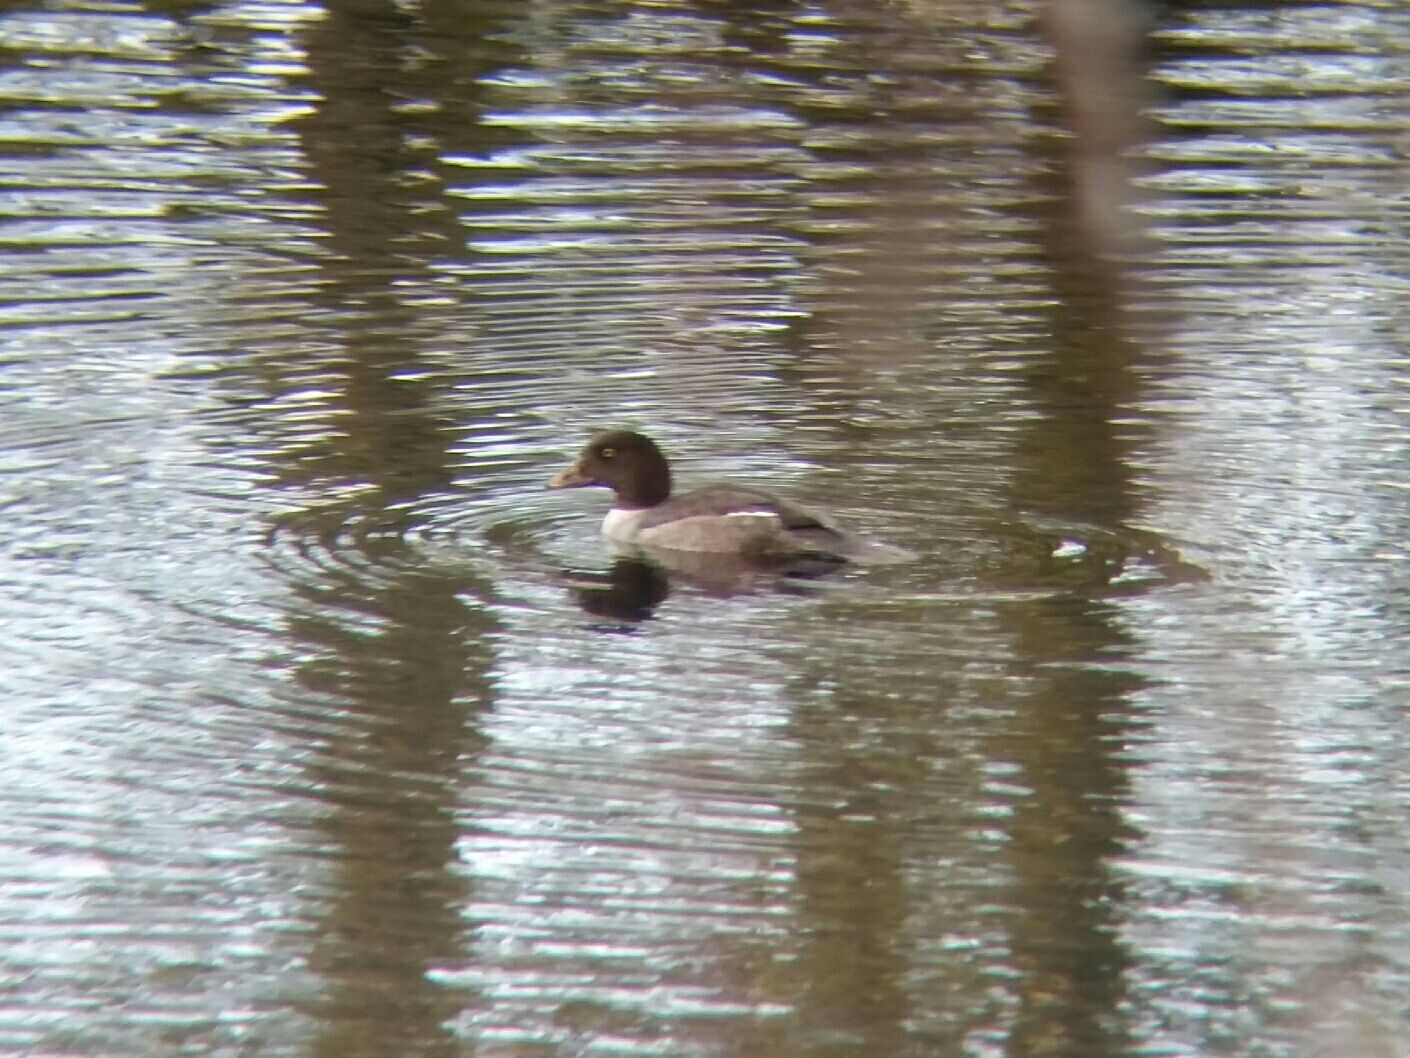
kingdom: Animalia
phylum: Chordata
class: Aves
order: Anseriformes
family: Anatidae
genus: Bucephala
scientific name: Bucephala clangula
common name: Common goldeneye
